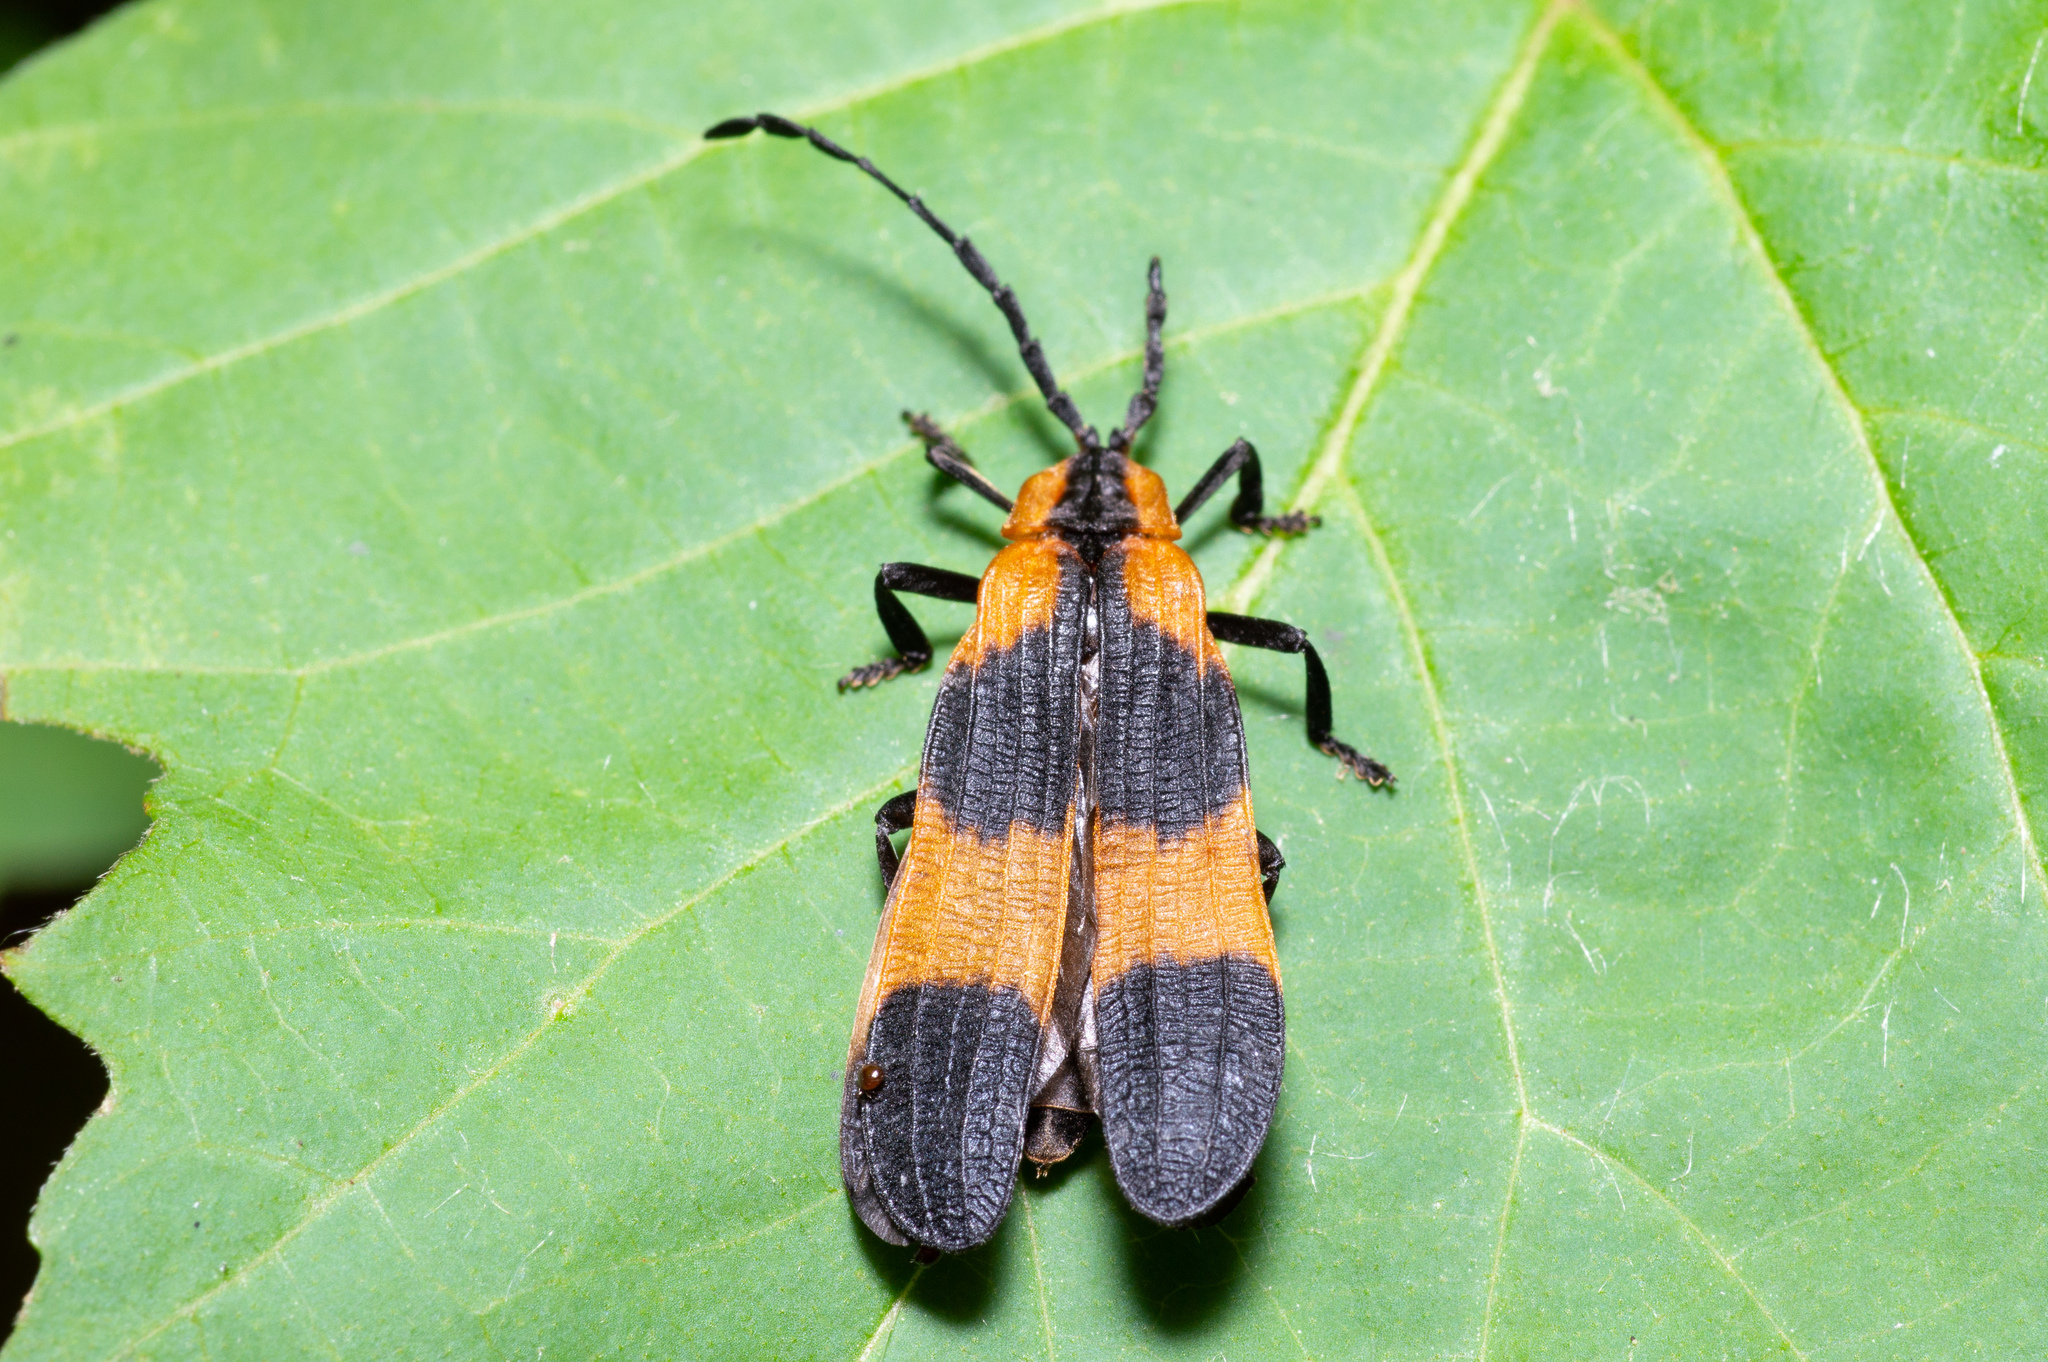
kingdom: Animalia
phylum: Arthropoda
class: Insecta
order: Coleoptera
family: Lycidae
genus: Calopteron
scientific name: Calopteron reticulatum
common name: Banded net-winged beetle
